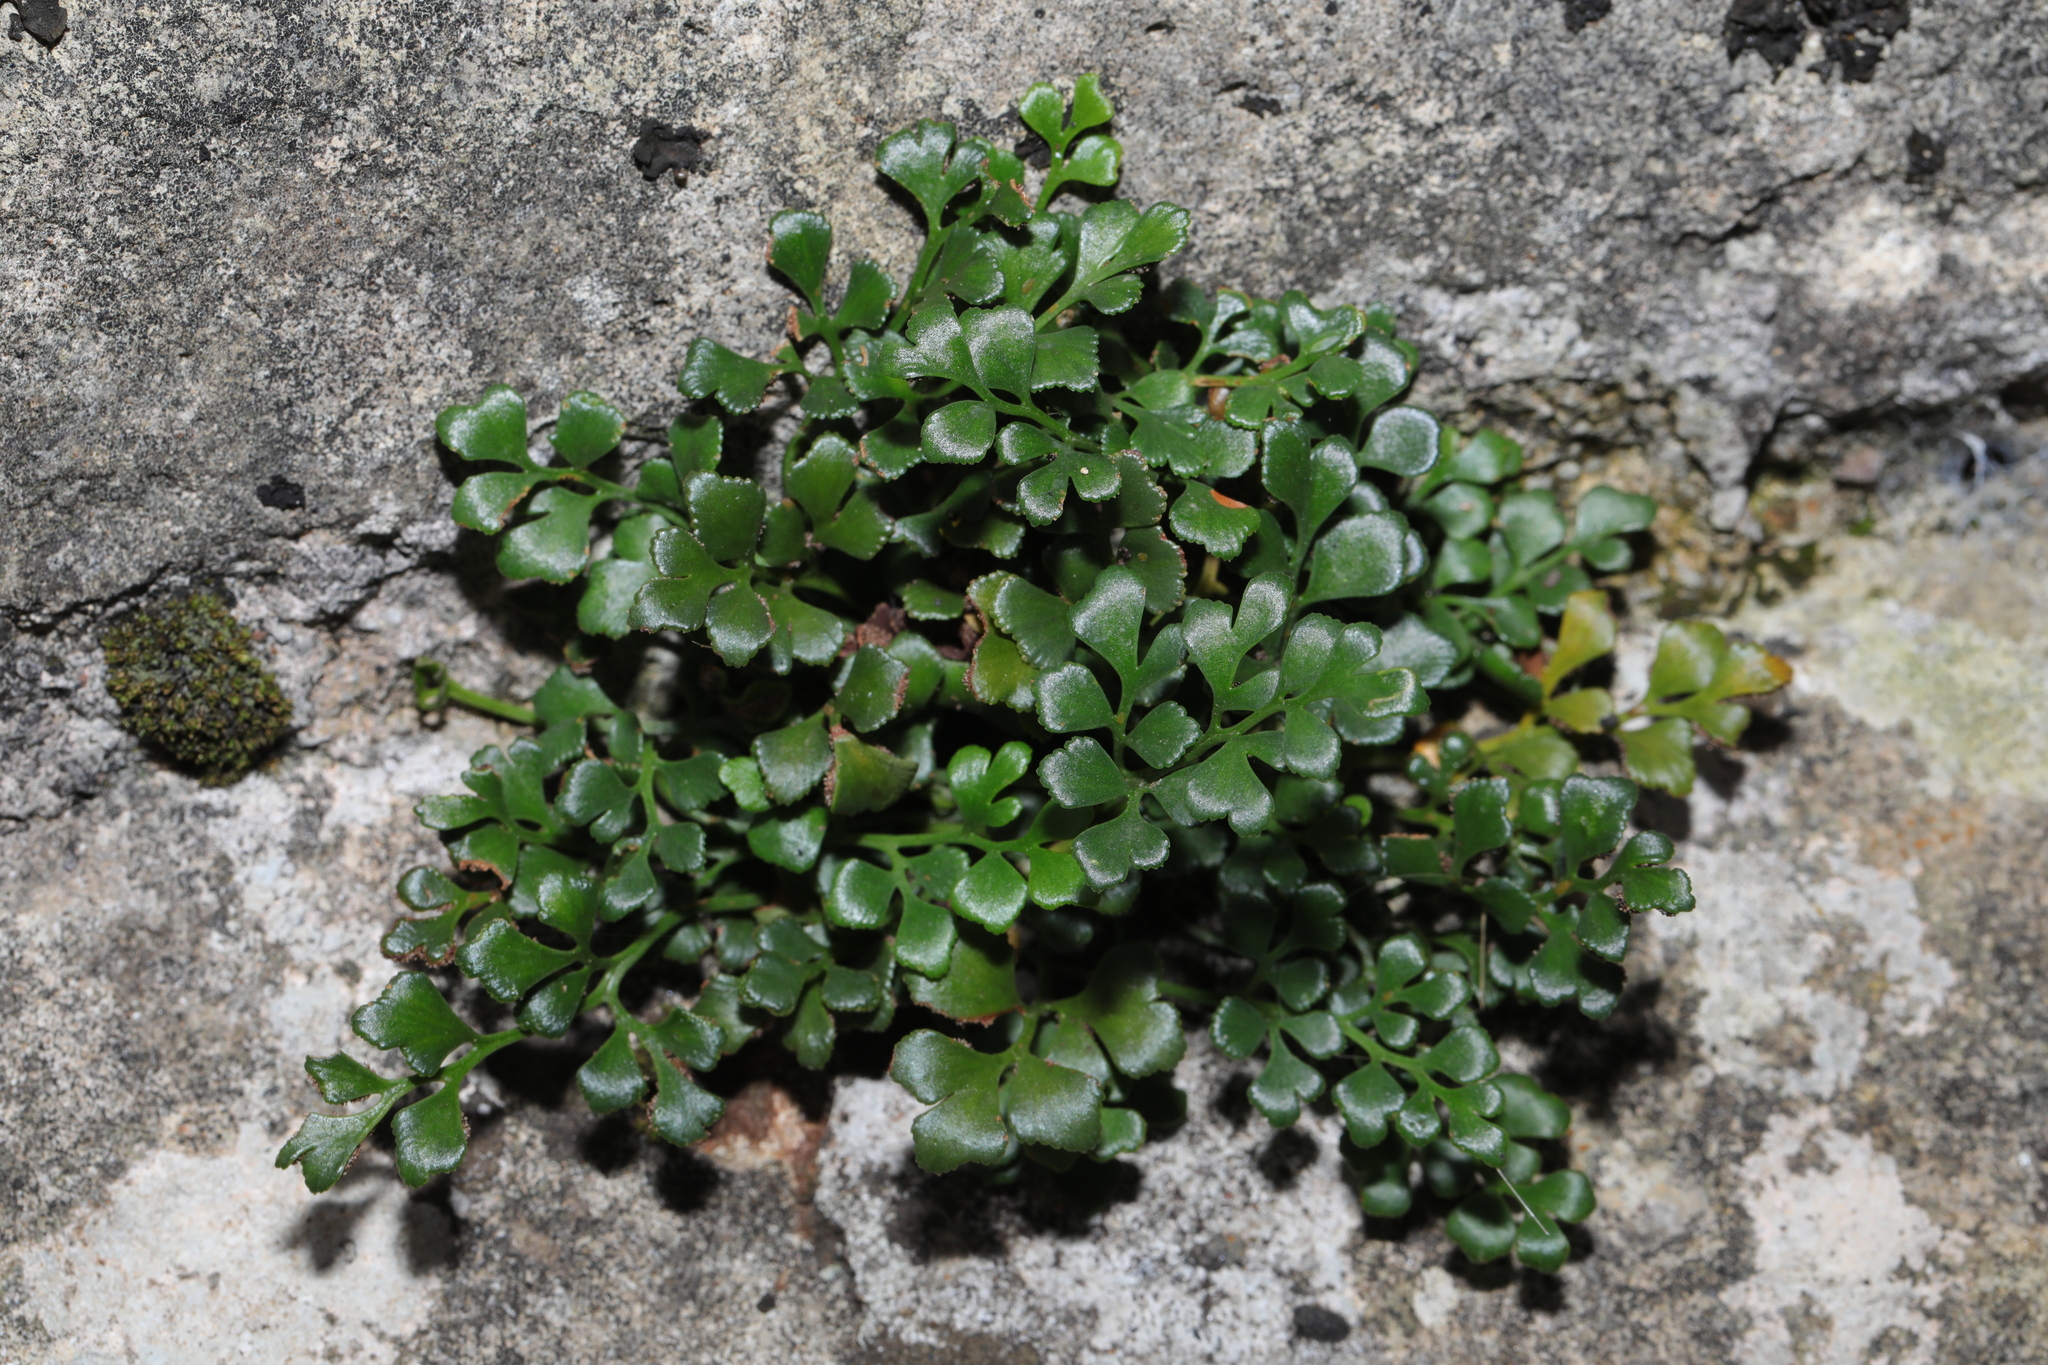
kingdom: Plantae
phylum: Tracheophyta
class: Polypodiopsida
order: Polypodiales
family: Aspleniaceae
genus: Asplenium
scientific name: Asplenium ruta-muraria
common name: Wall-rue
